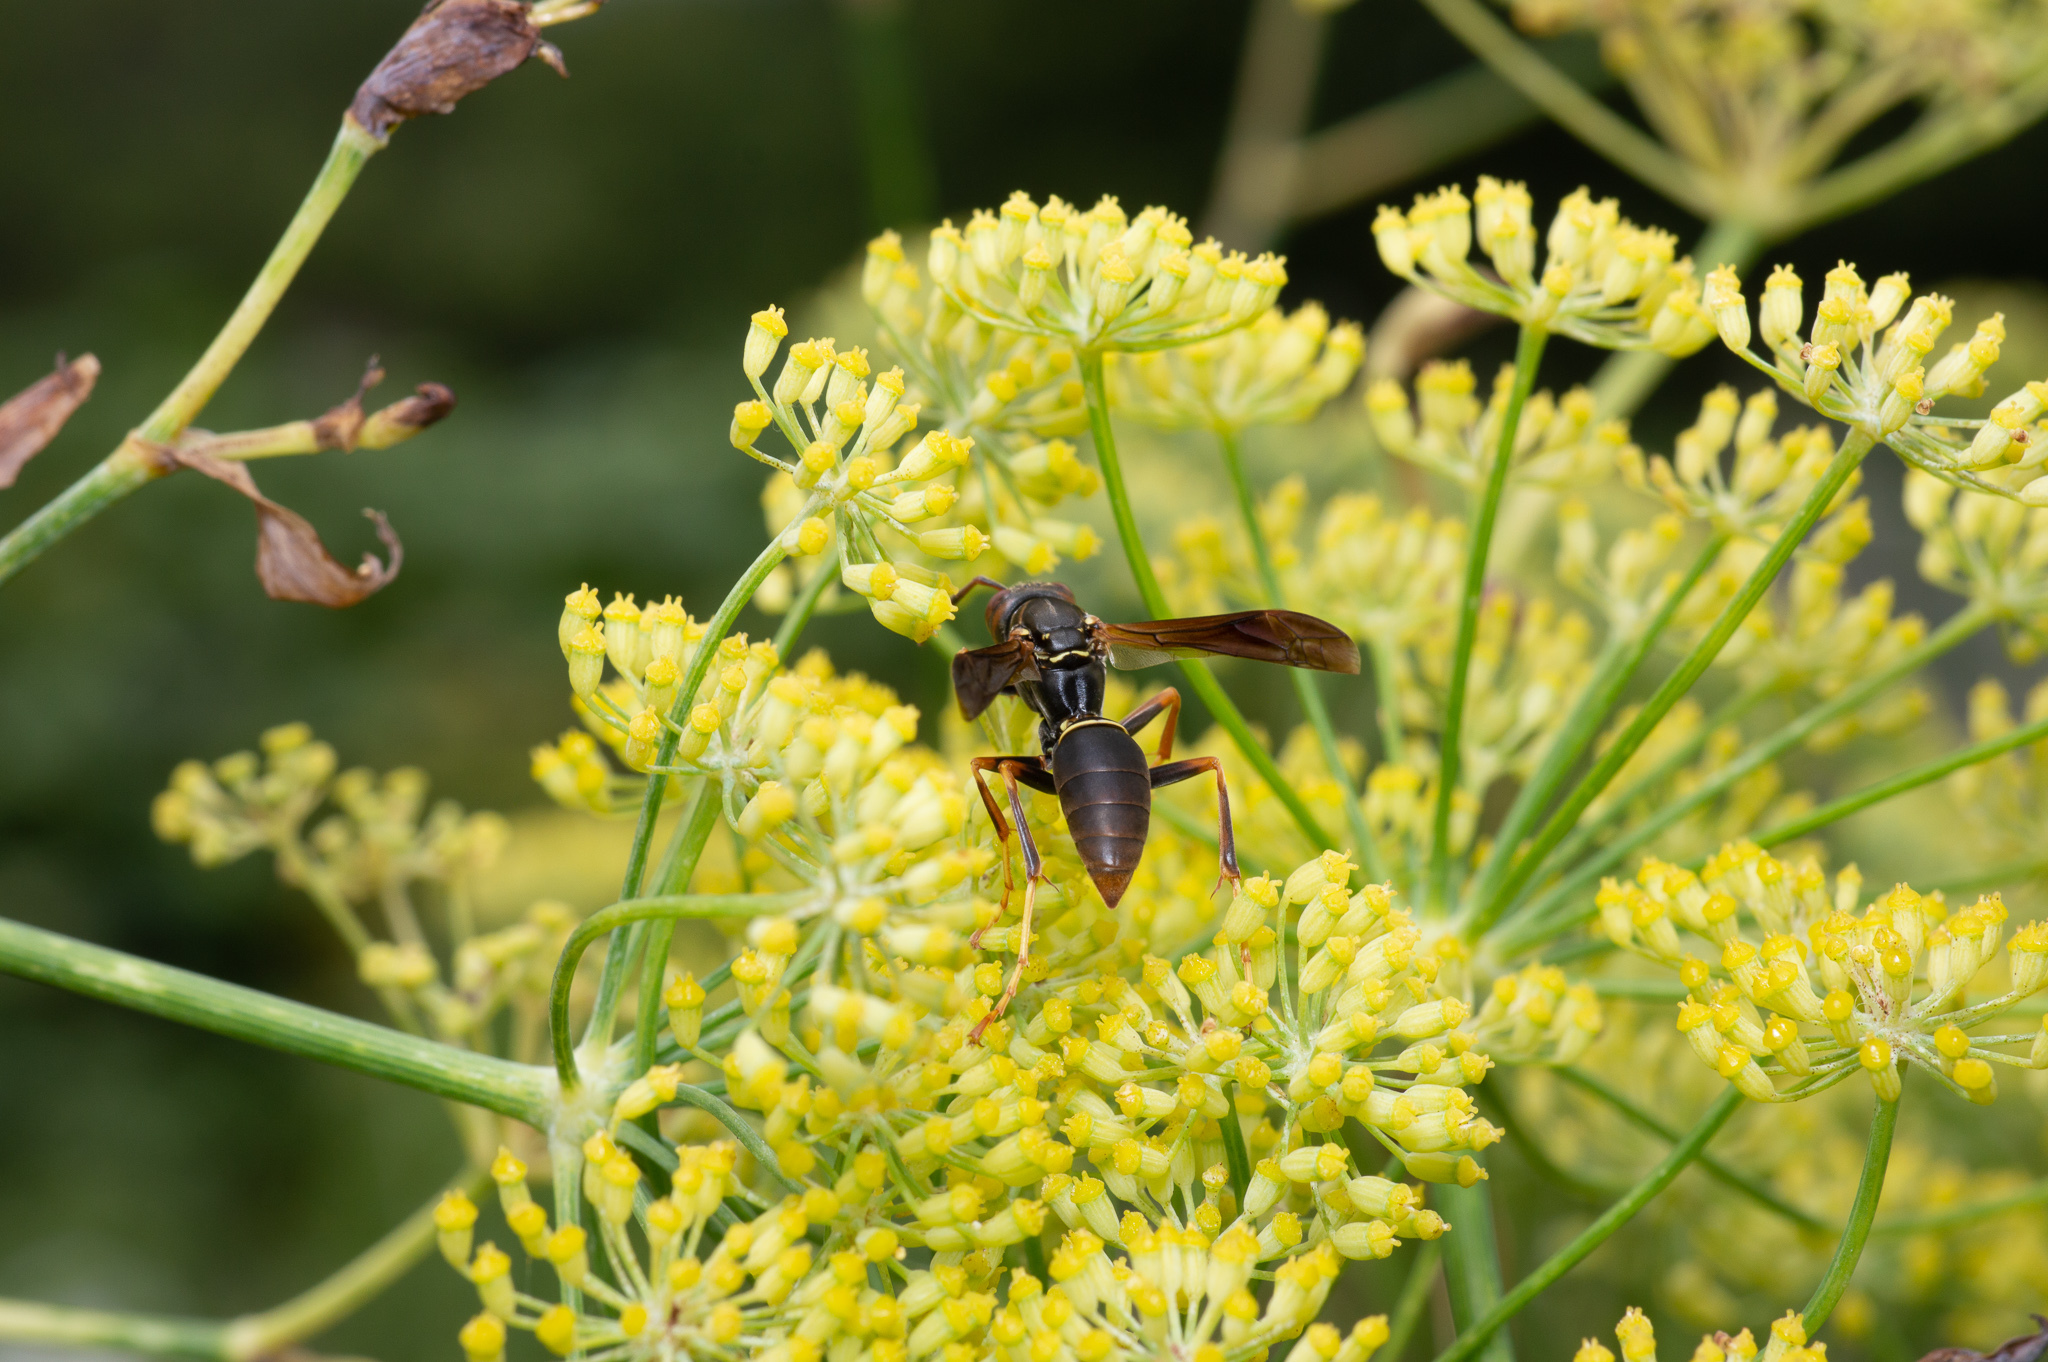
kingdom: Animalia
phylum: Arthropoda
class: Insecta
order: Hymenoptera
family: Eumenidae
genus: Polistes
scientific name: Polistes fuscatus
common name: Dark paper wasp
